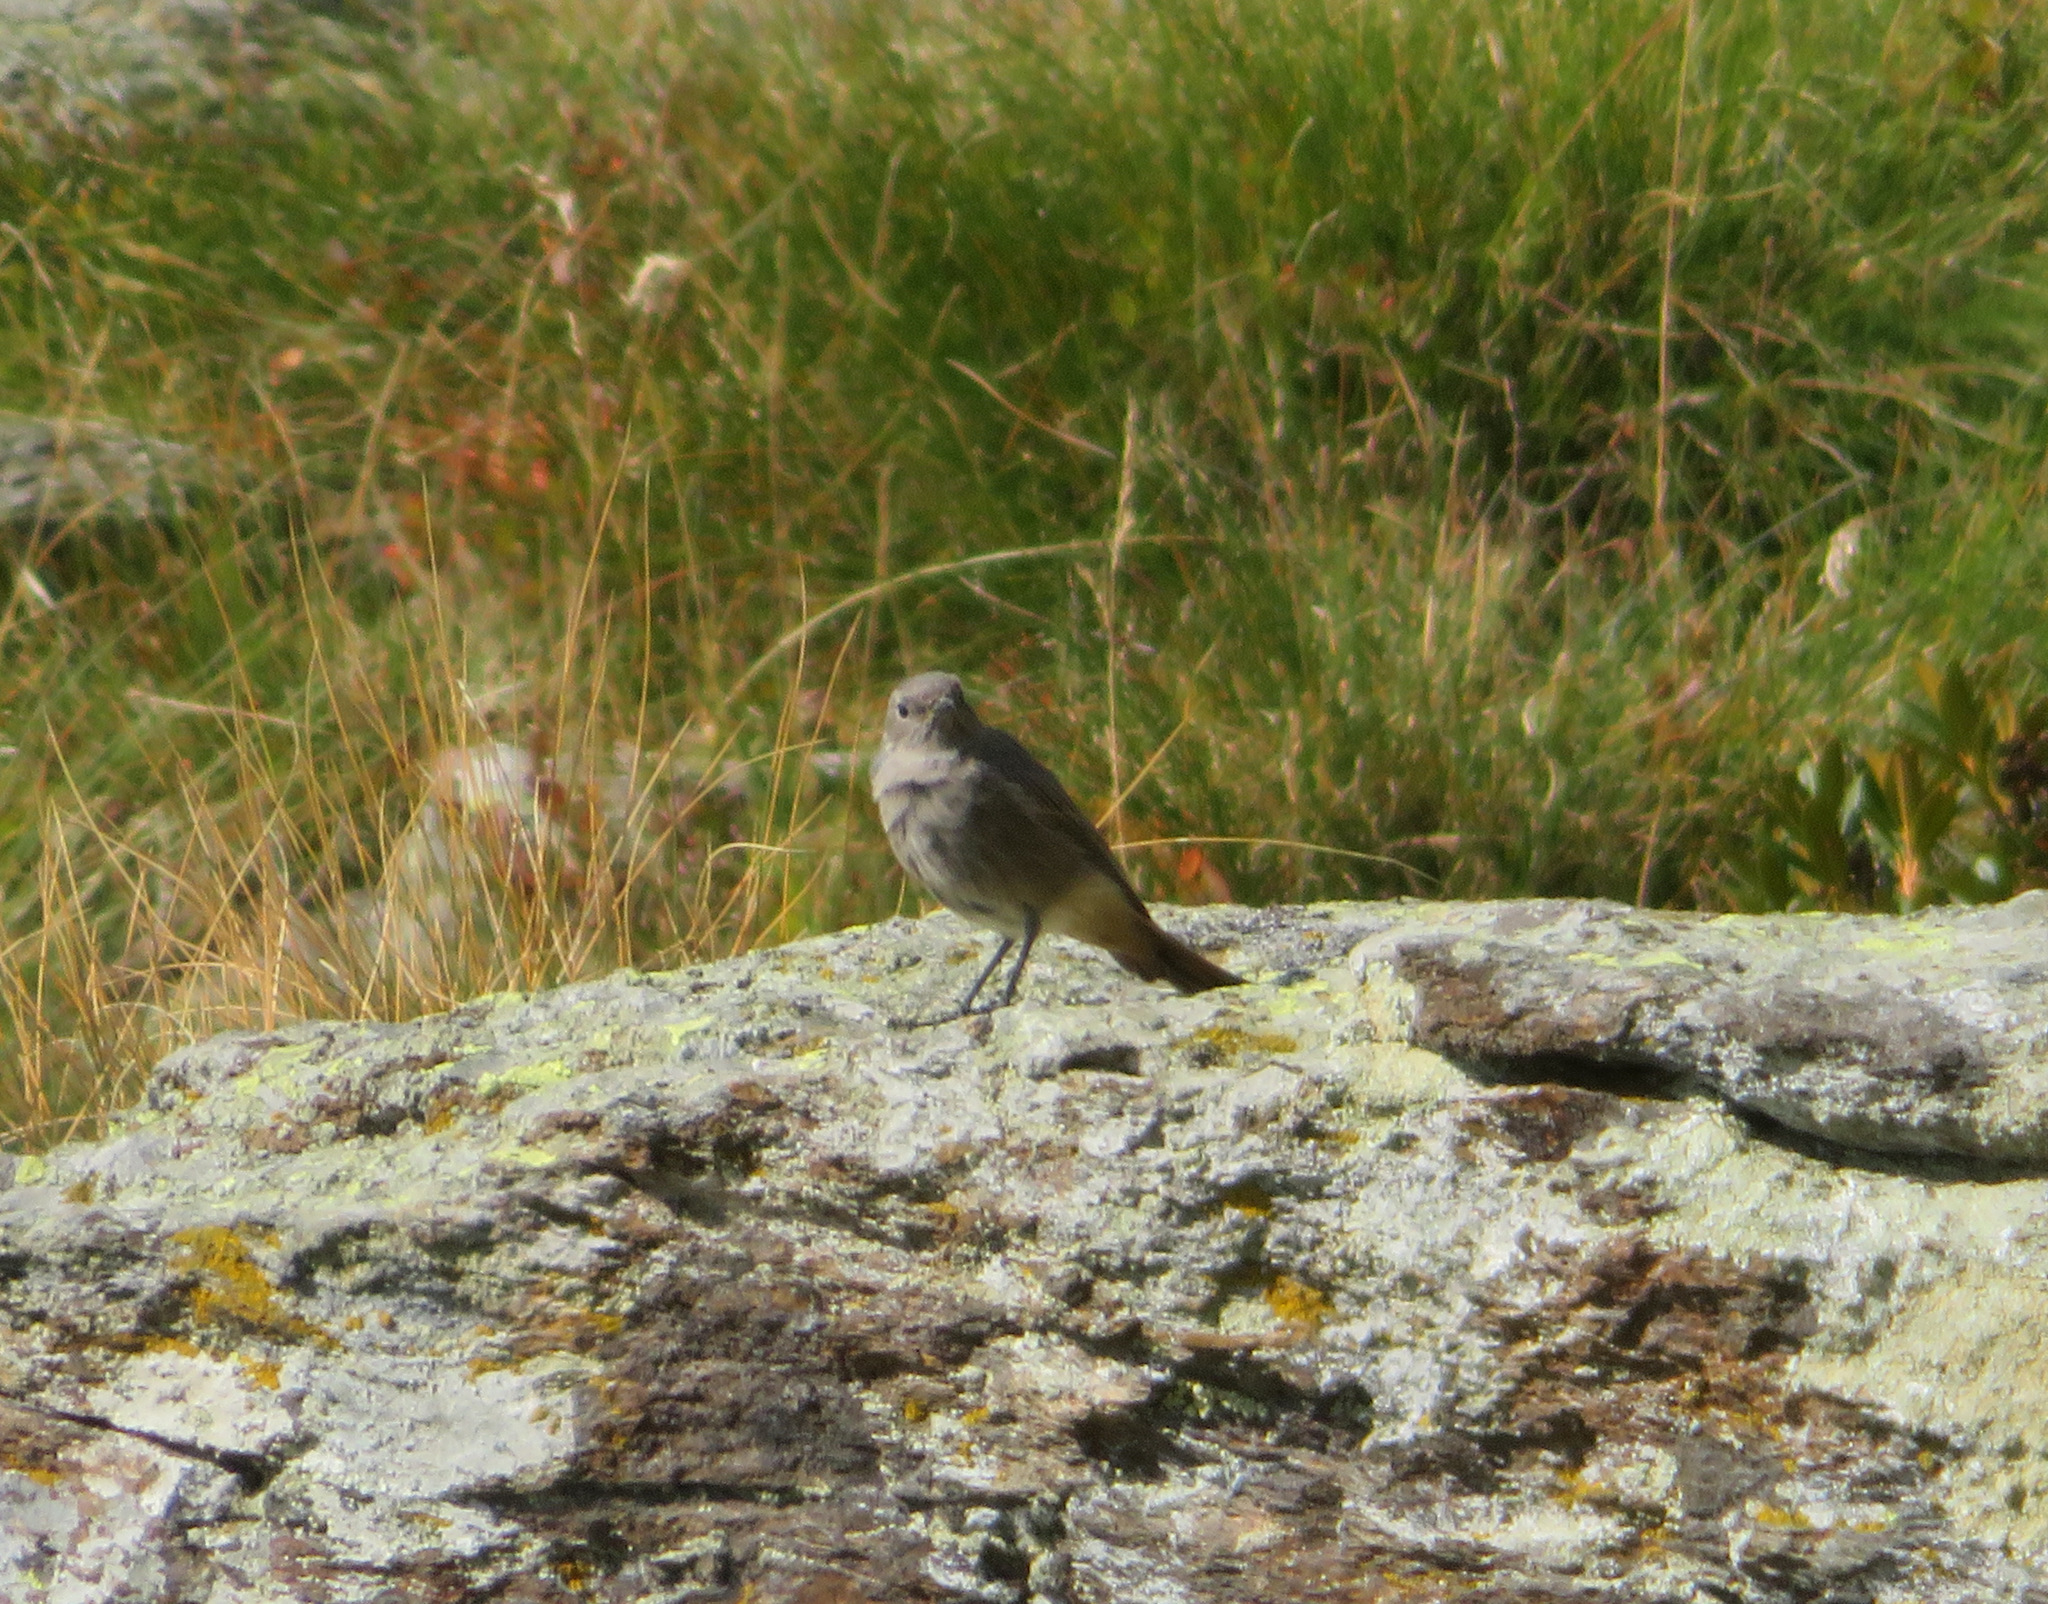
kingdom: Animalia
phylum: Chordata
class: Aves
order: Passeriformes
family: Muscicapidae
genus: Phoenicurus
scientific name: Phoenicurus ochruros
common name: Black redstart
